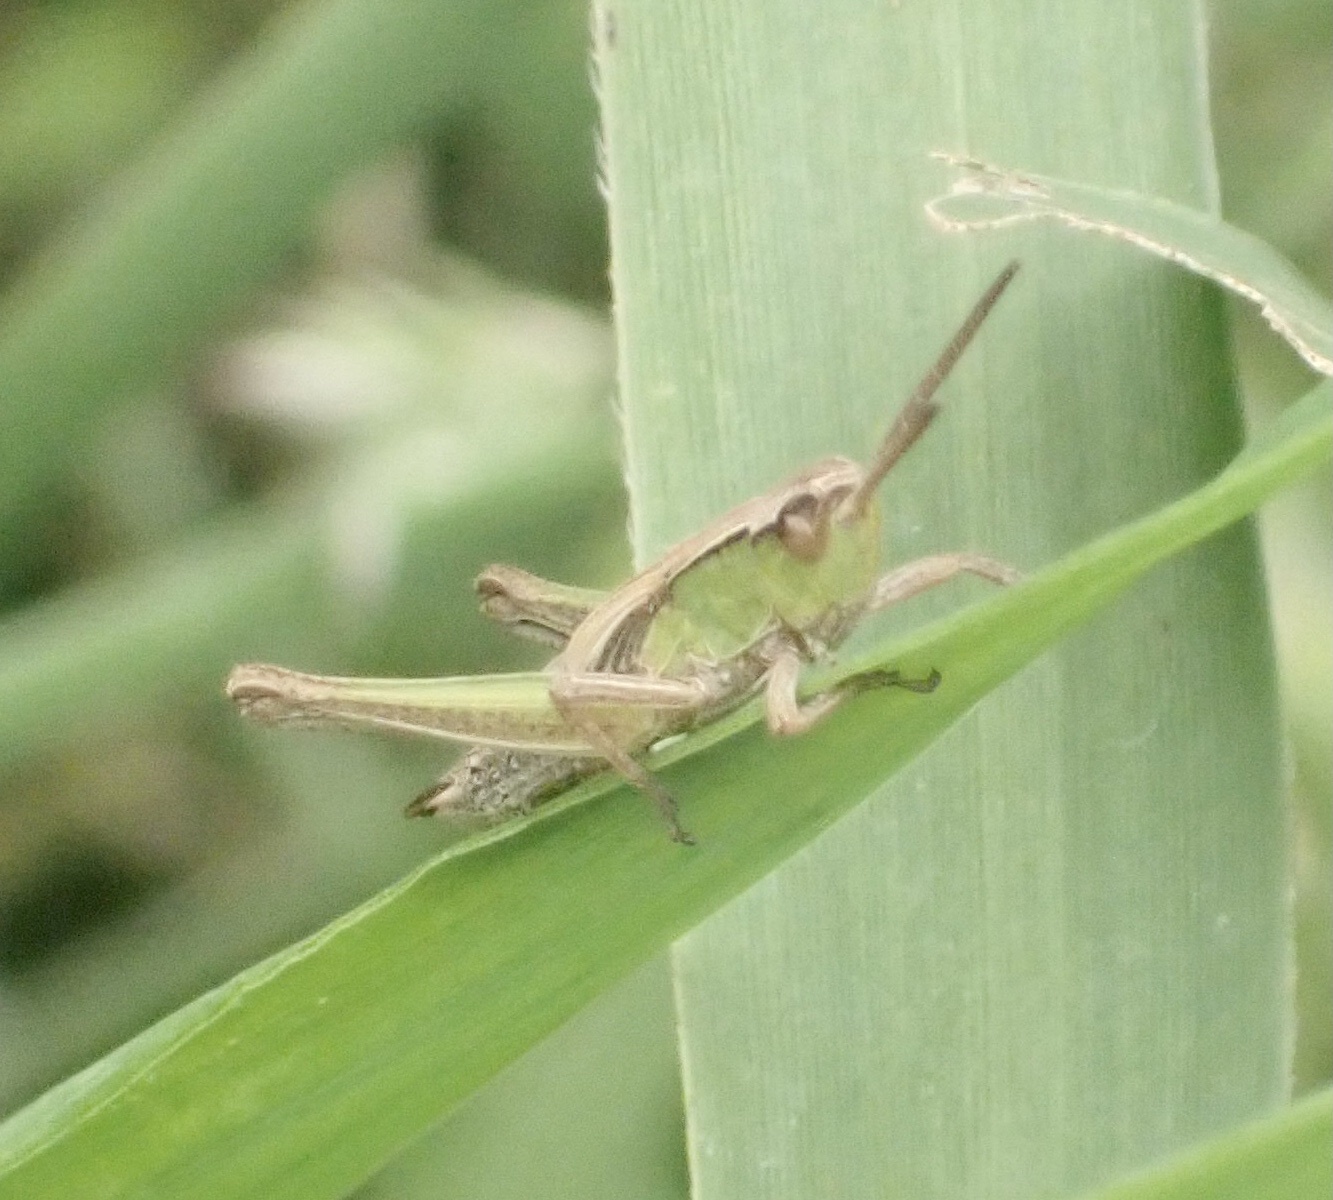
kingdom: Animalia
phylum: Arthropoda
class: Insecta
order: Orthoptera
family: Acrididae
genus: Chorthippus
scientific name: Chorthippus albomarginatus
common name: Lesser marsh grasshopper
